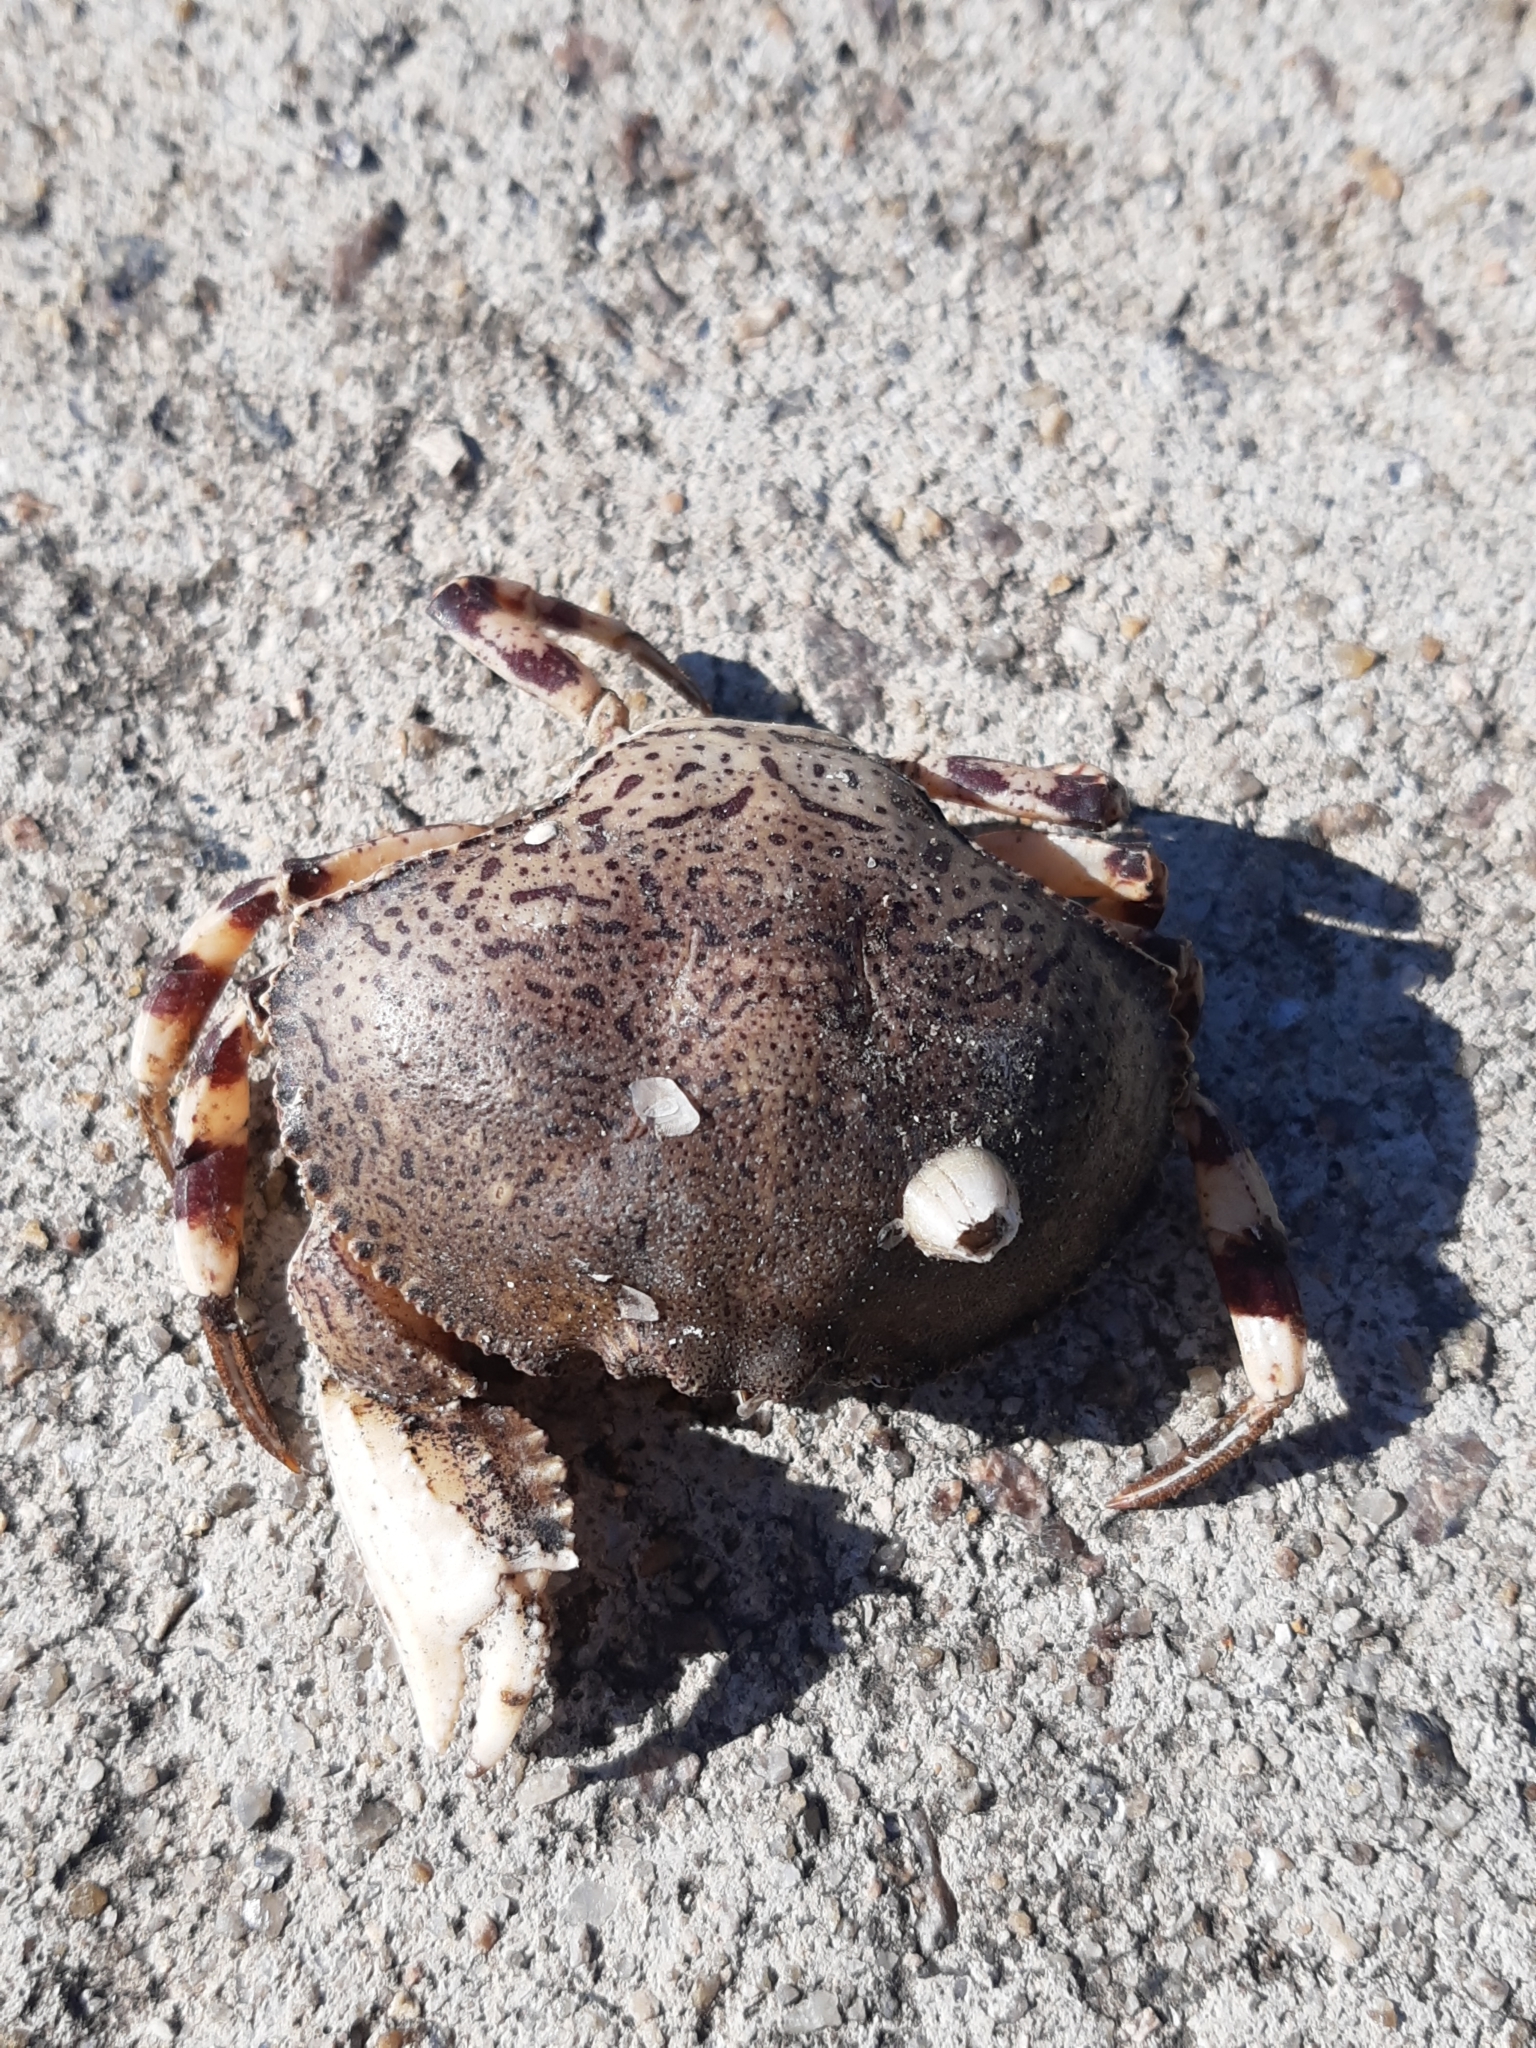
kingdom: Animalia
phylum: Arthropoda
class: Malacostraca
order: Decapoda
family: Aethridae
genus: Hepatus
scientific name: Hepatus pudibundus
